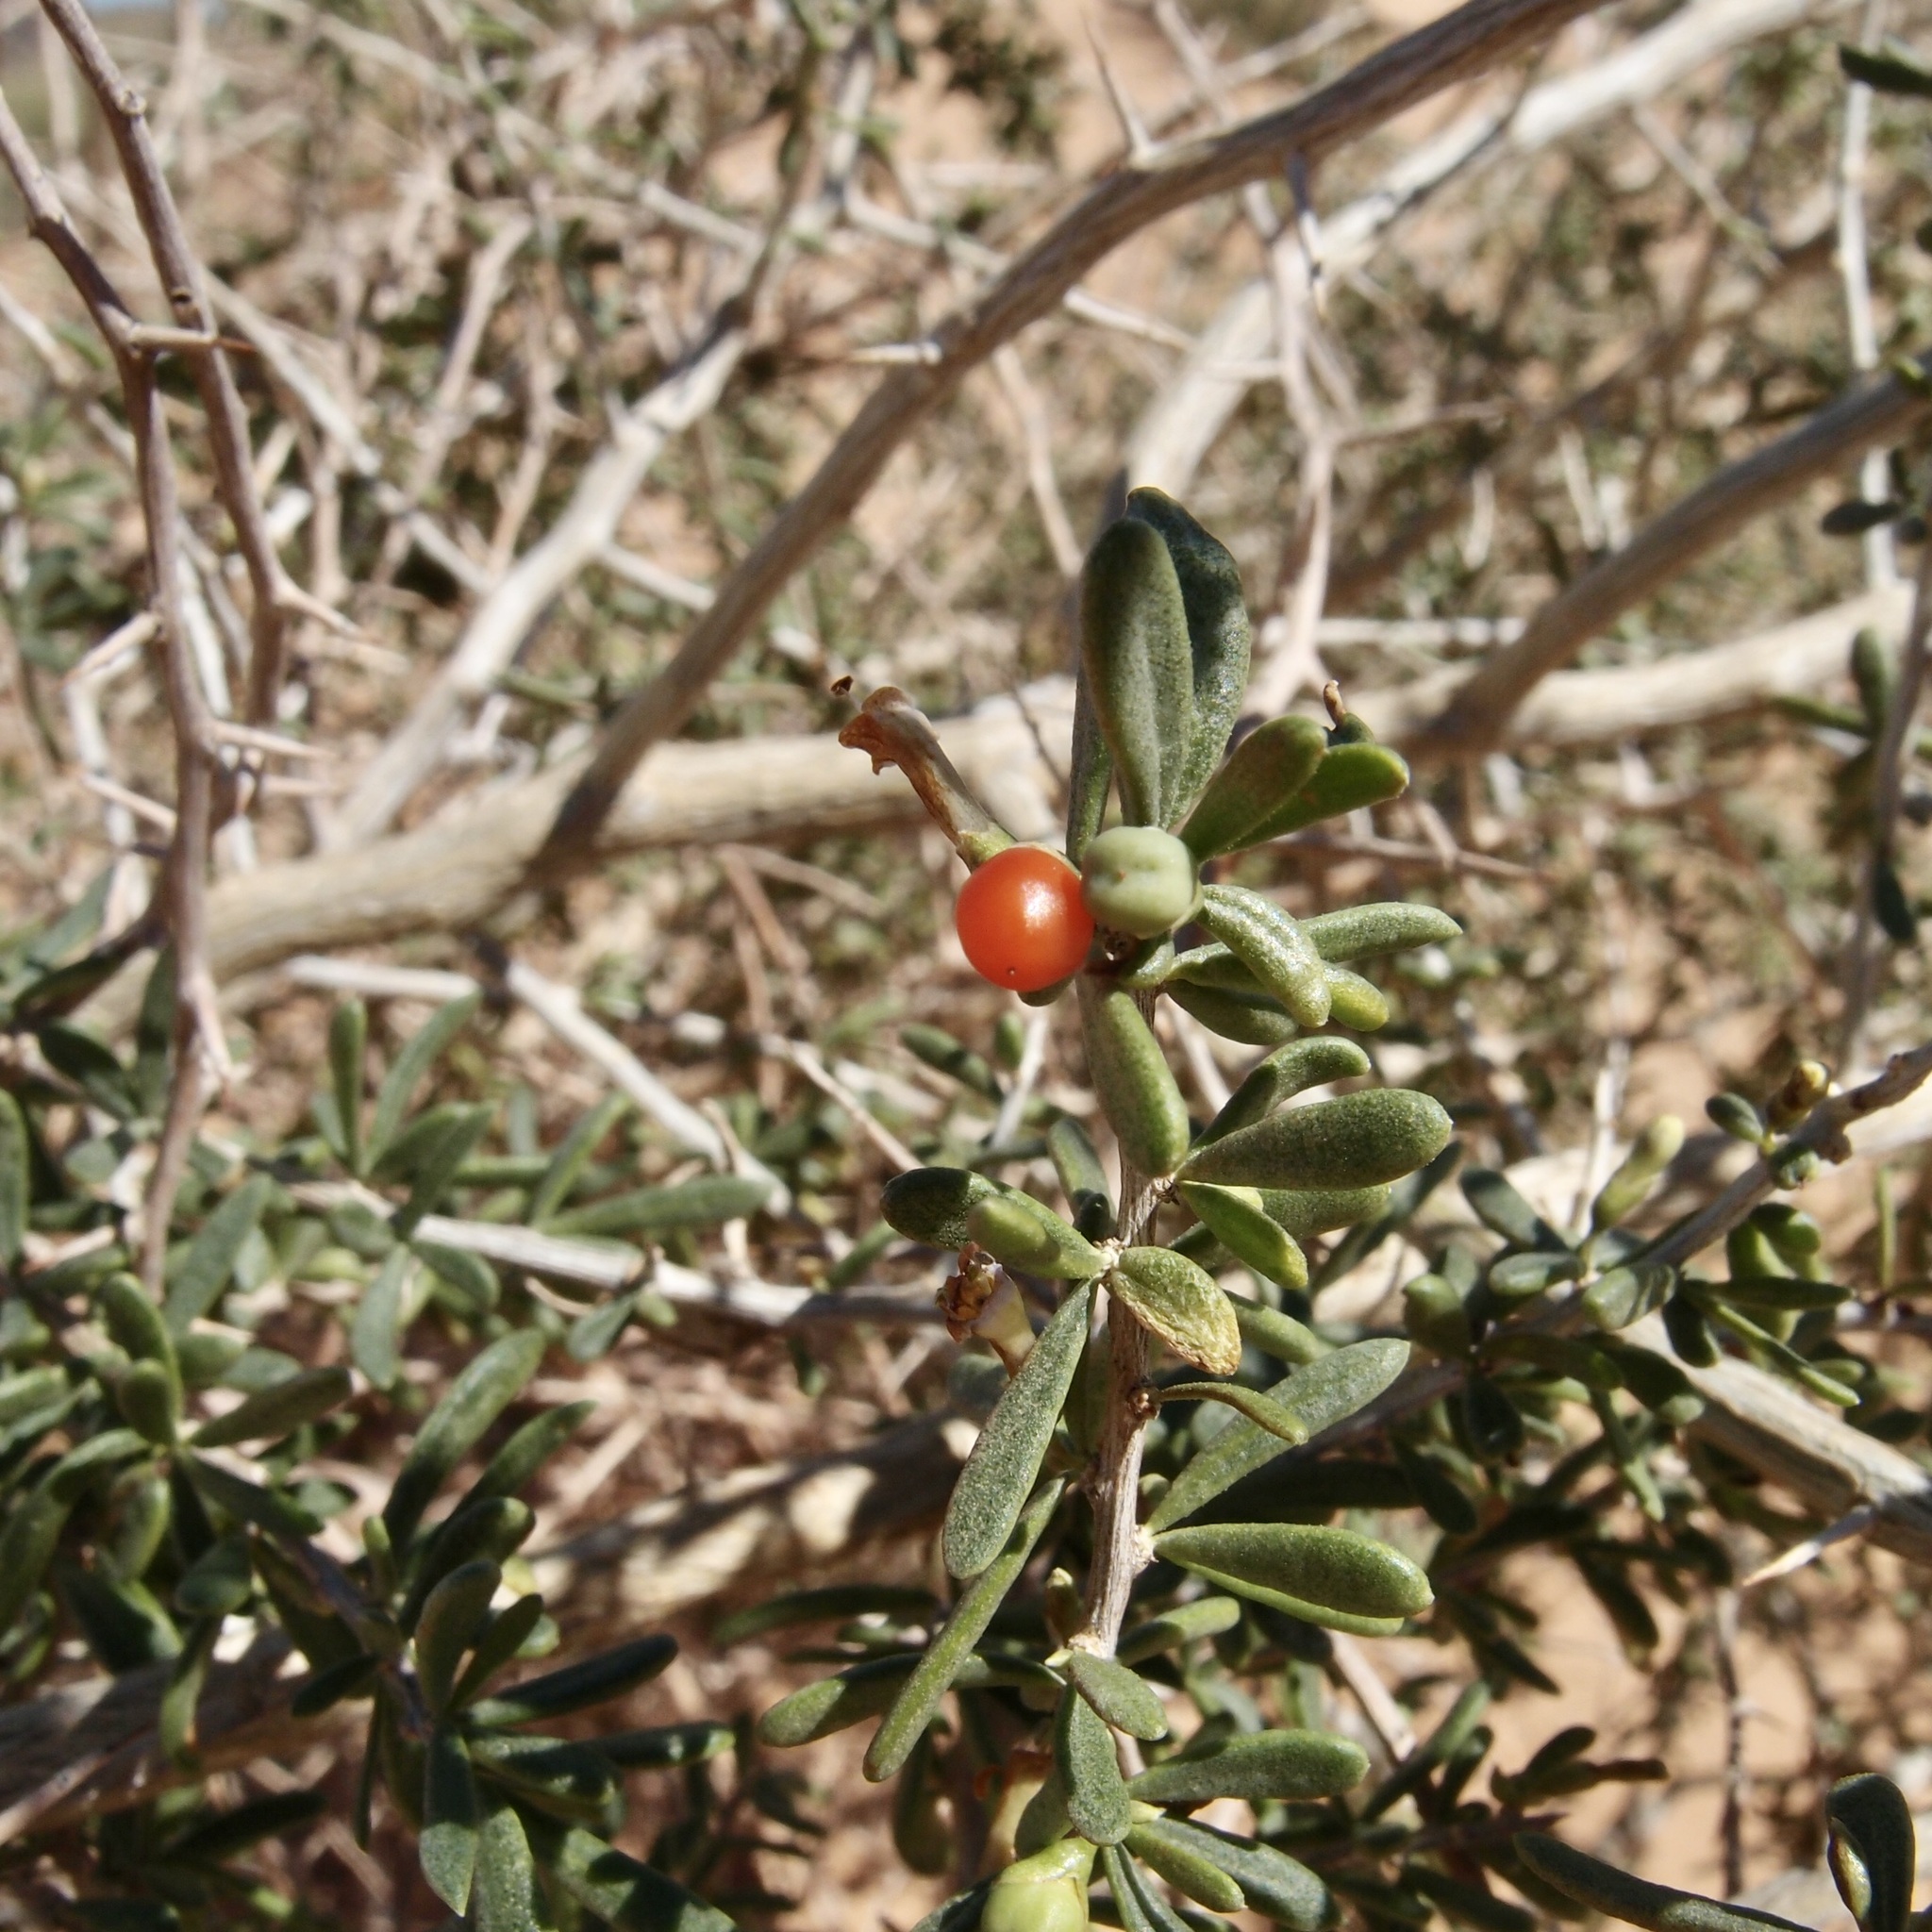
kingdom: Plantae
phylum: Tracheophyta
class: Magnoliopsida
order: Solanales
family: Solanaceae
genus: Lycium
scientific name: Lycium andersonii
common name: Water-jacket
